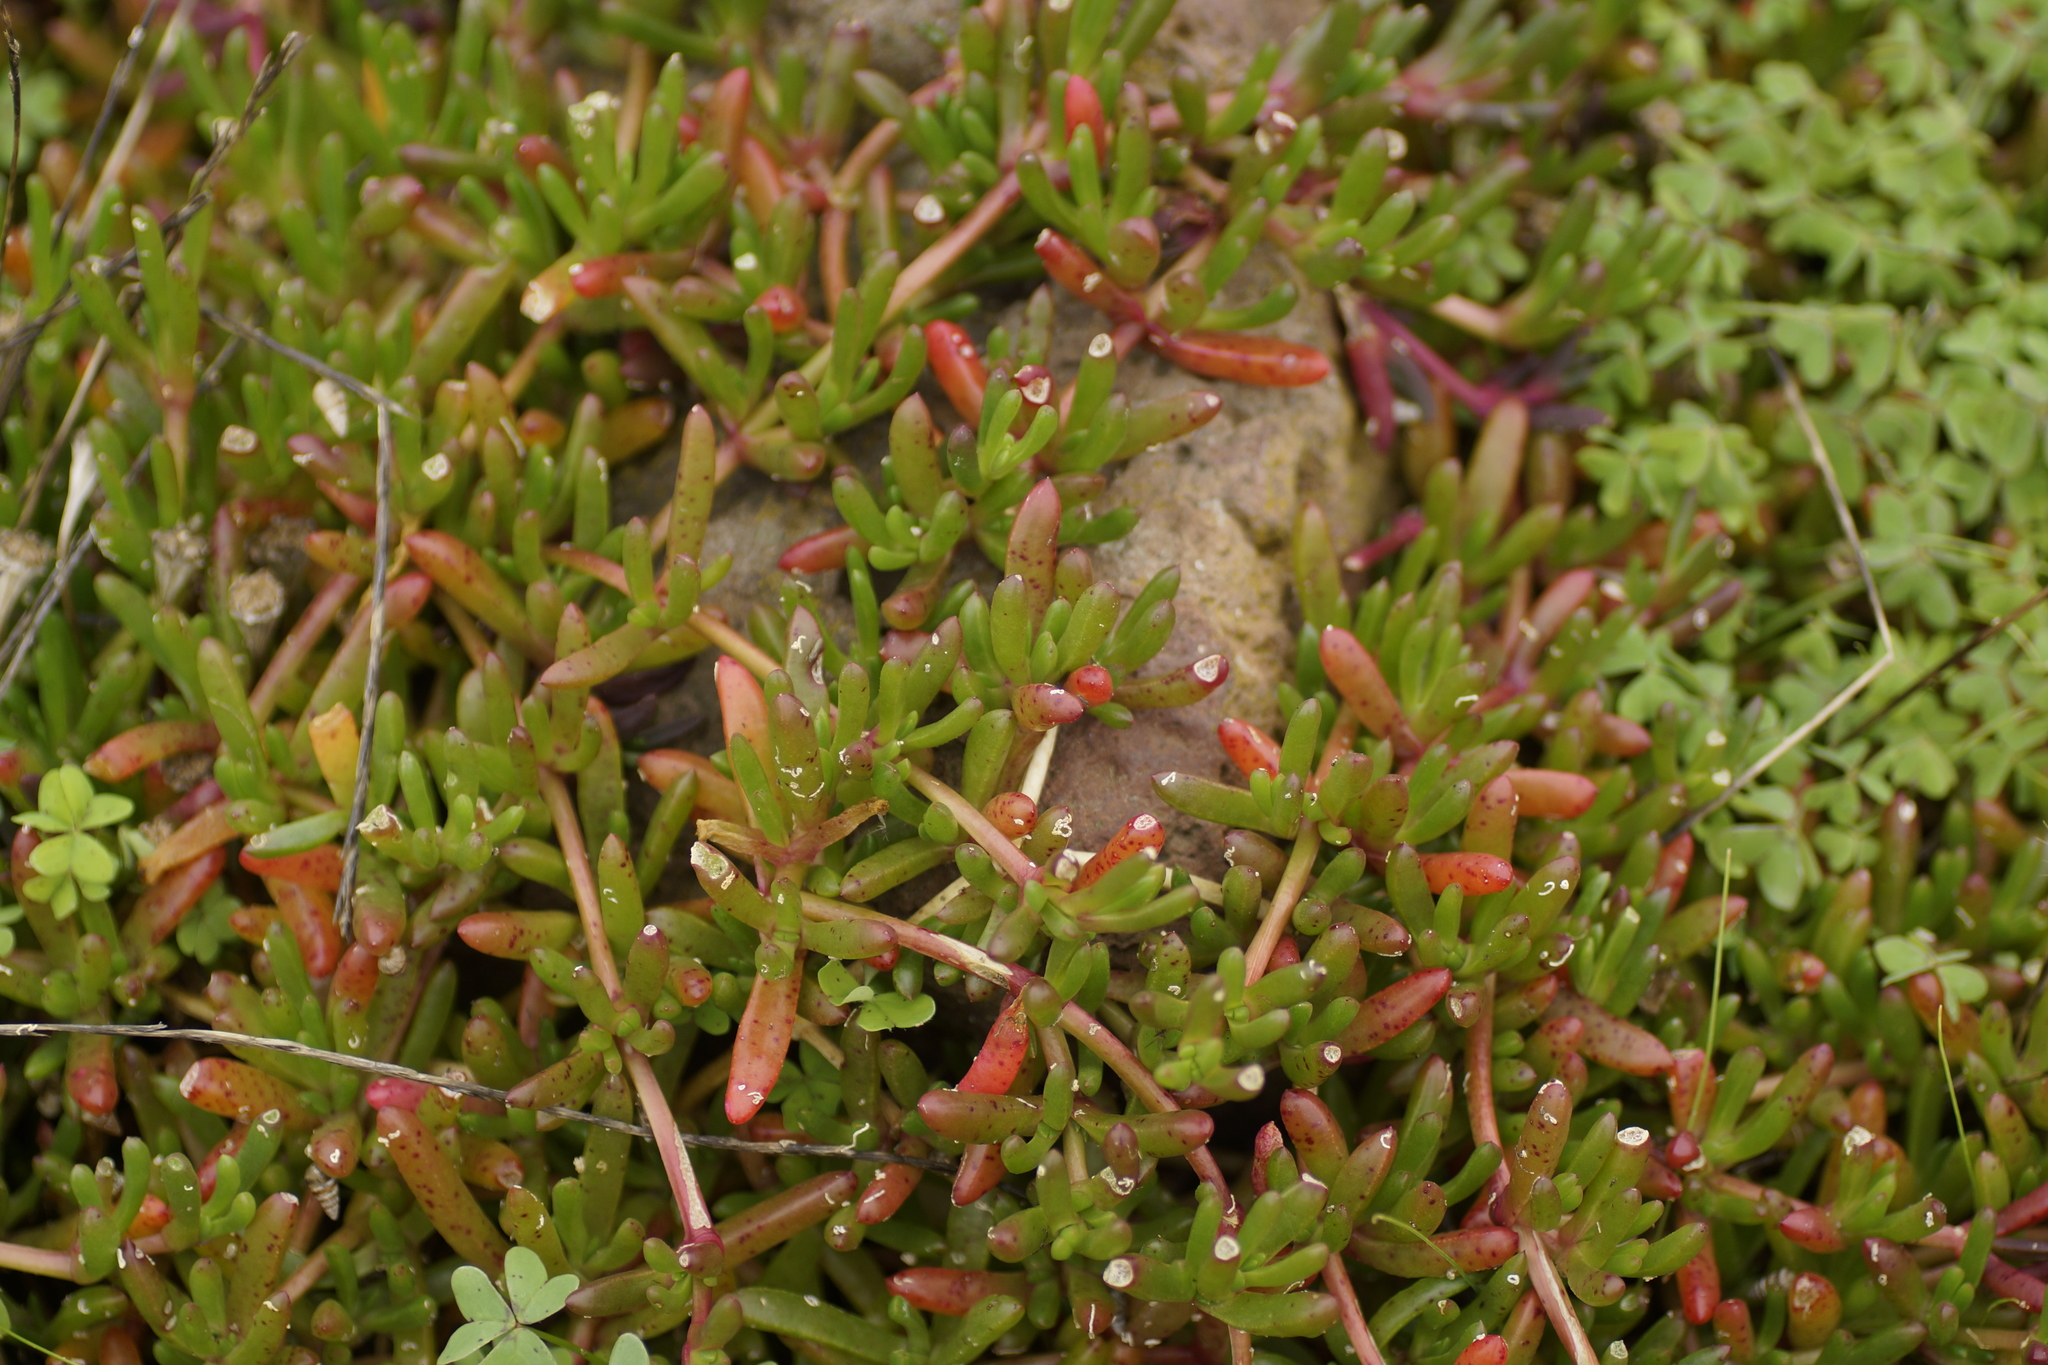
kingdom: Plantae
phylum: Tracheophyta
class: Magnoliopsida
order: Caryophyllales
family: Aizoaceae
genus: Disphyma
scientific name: Disphyma clavellatum
